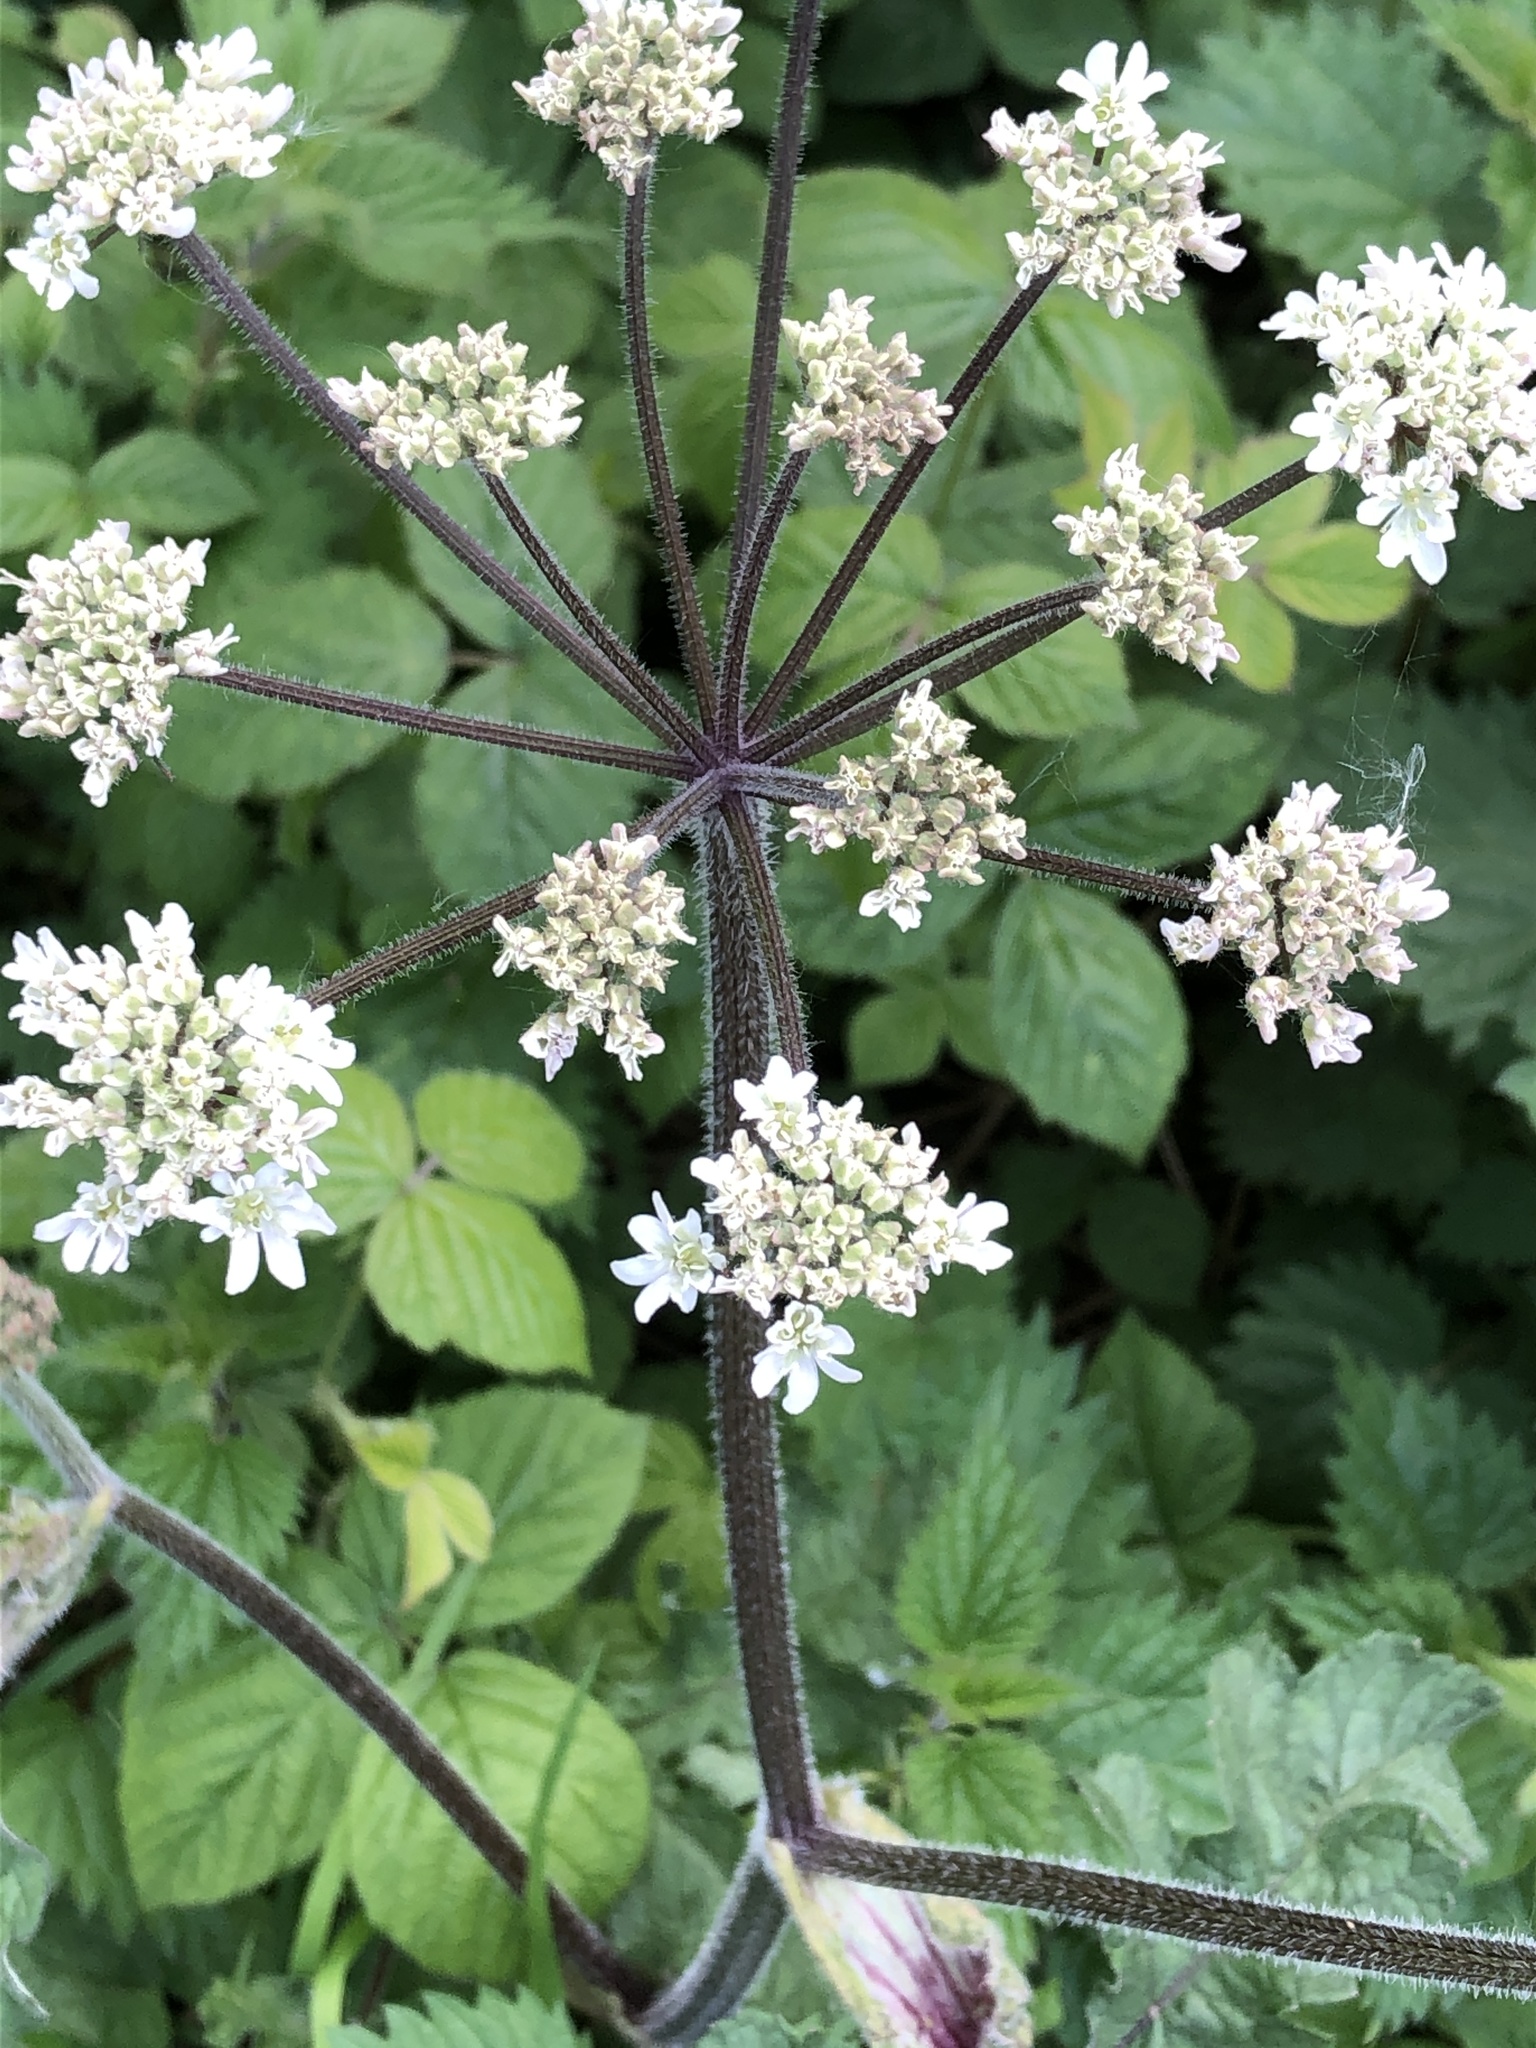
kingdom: Plantae
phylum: Tracheophyta
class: Magnoliopsida
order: Apiales
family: Apiaceae
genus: Heracleum
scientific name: Heracleum sphondylium
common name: Hogweed
